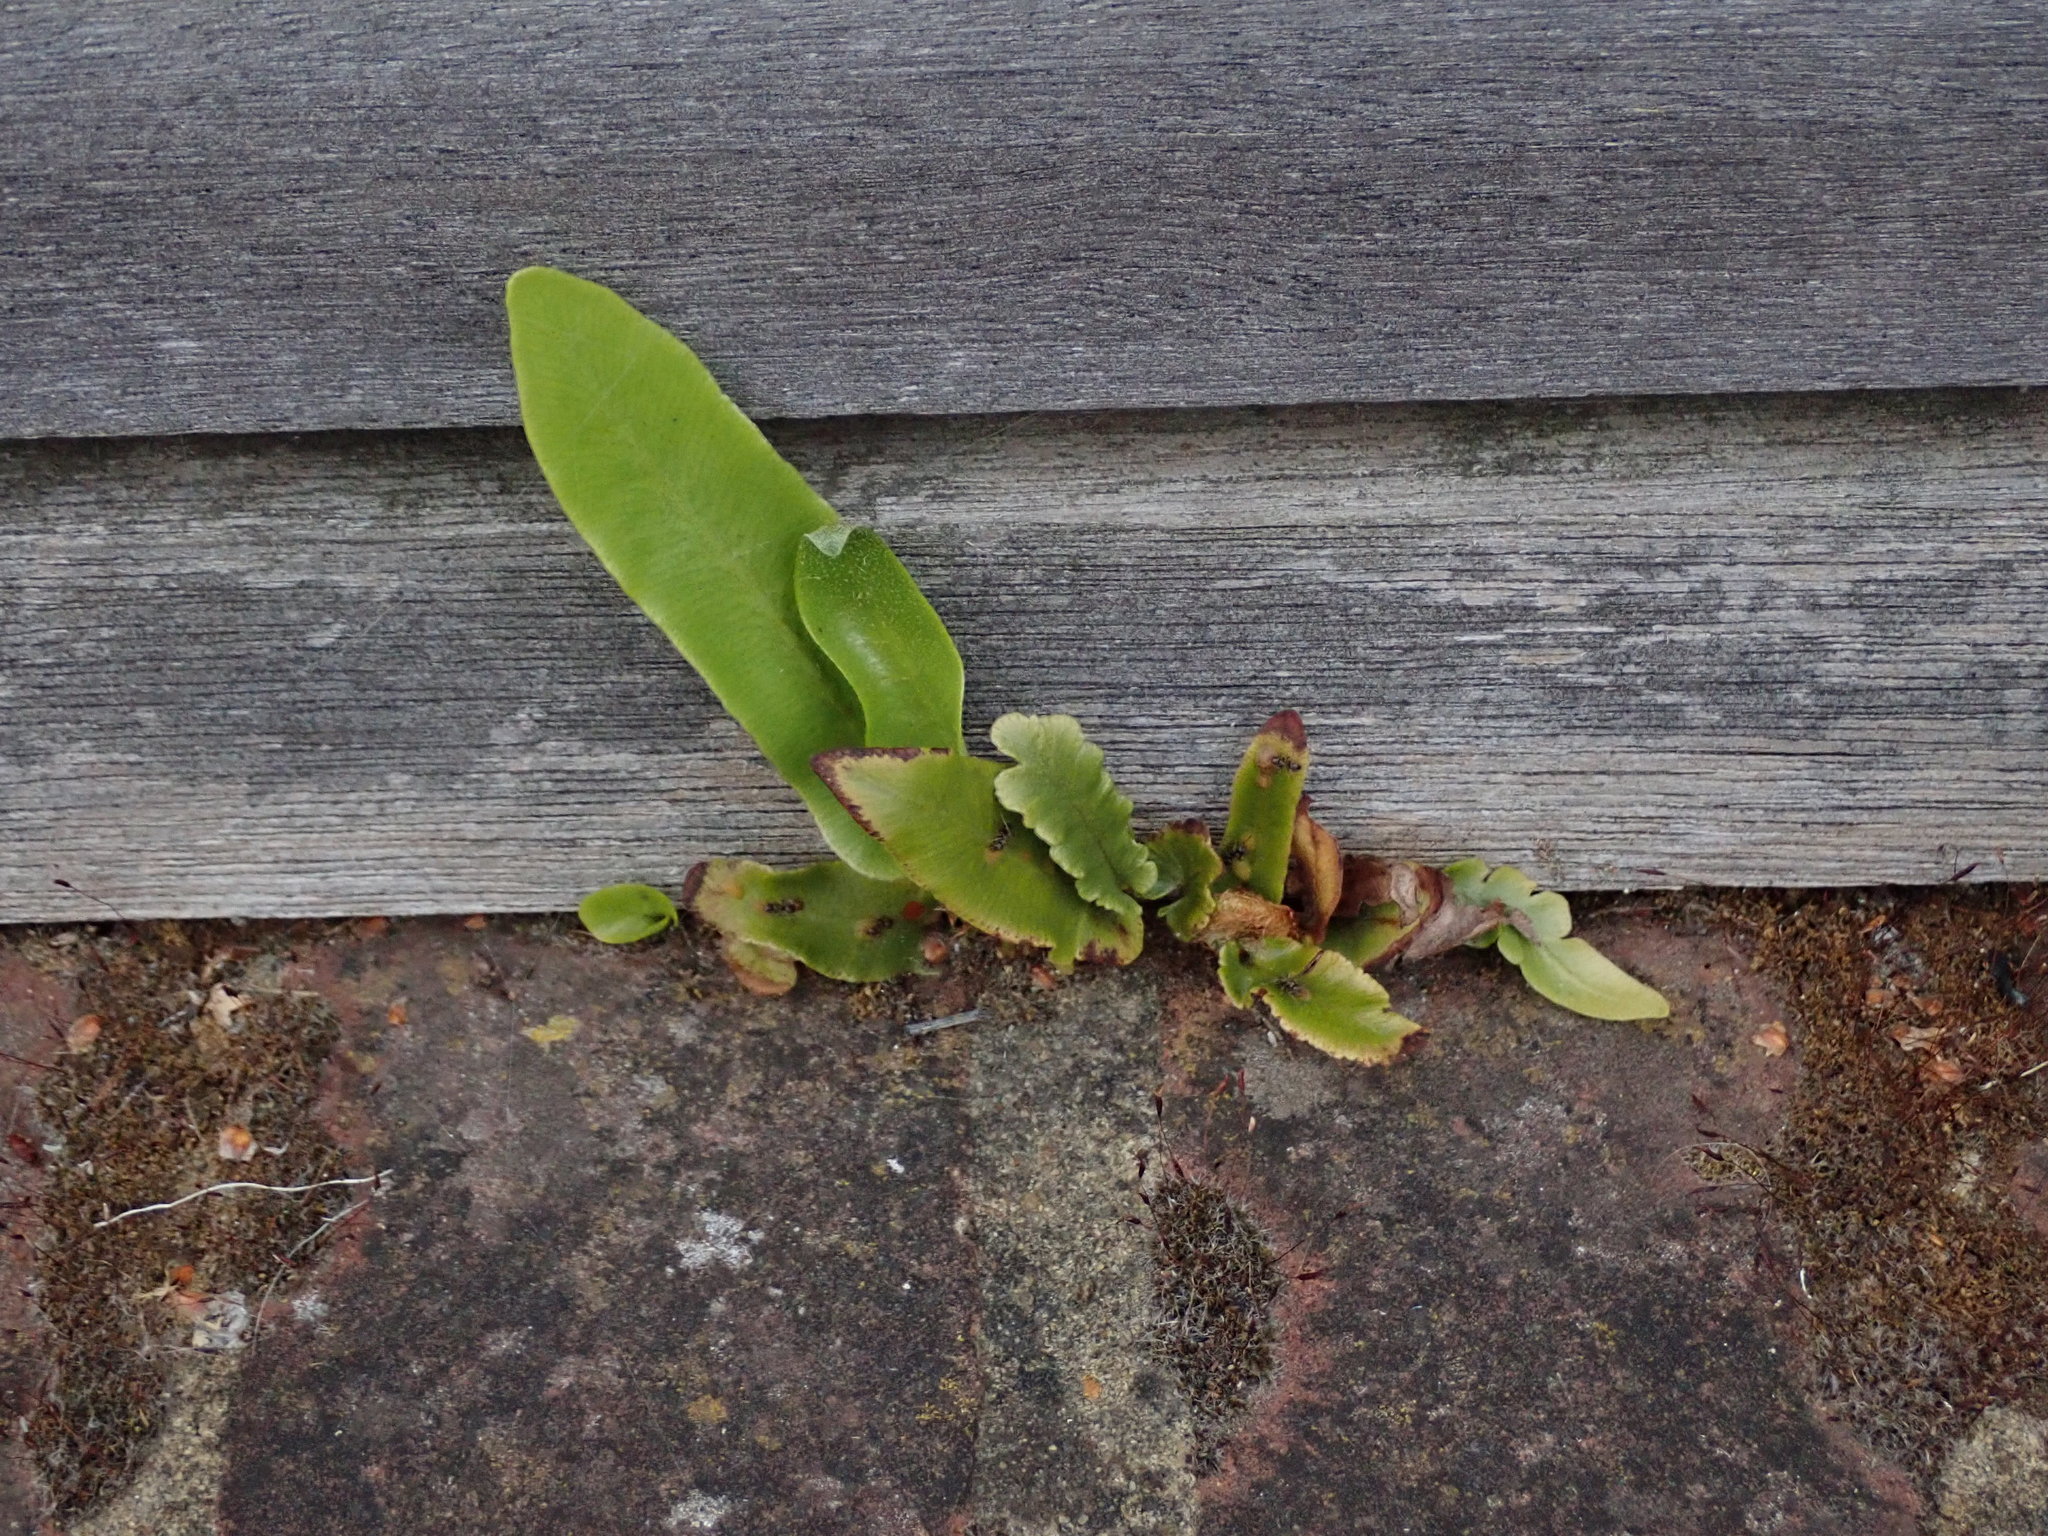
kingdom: Plantae
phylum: Tracheophyta
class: Polypodiopsida
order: Polypodiales
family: Aspleniaceae
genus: Asplenium
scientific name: Asplenium scolopendrium
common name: Hart's-tongue fern
